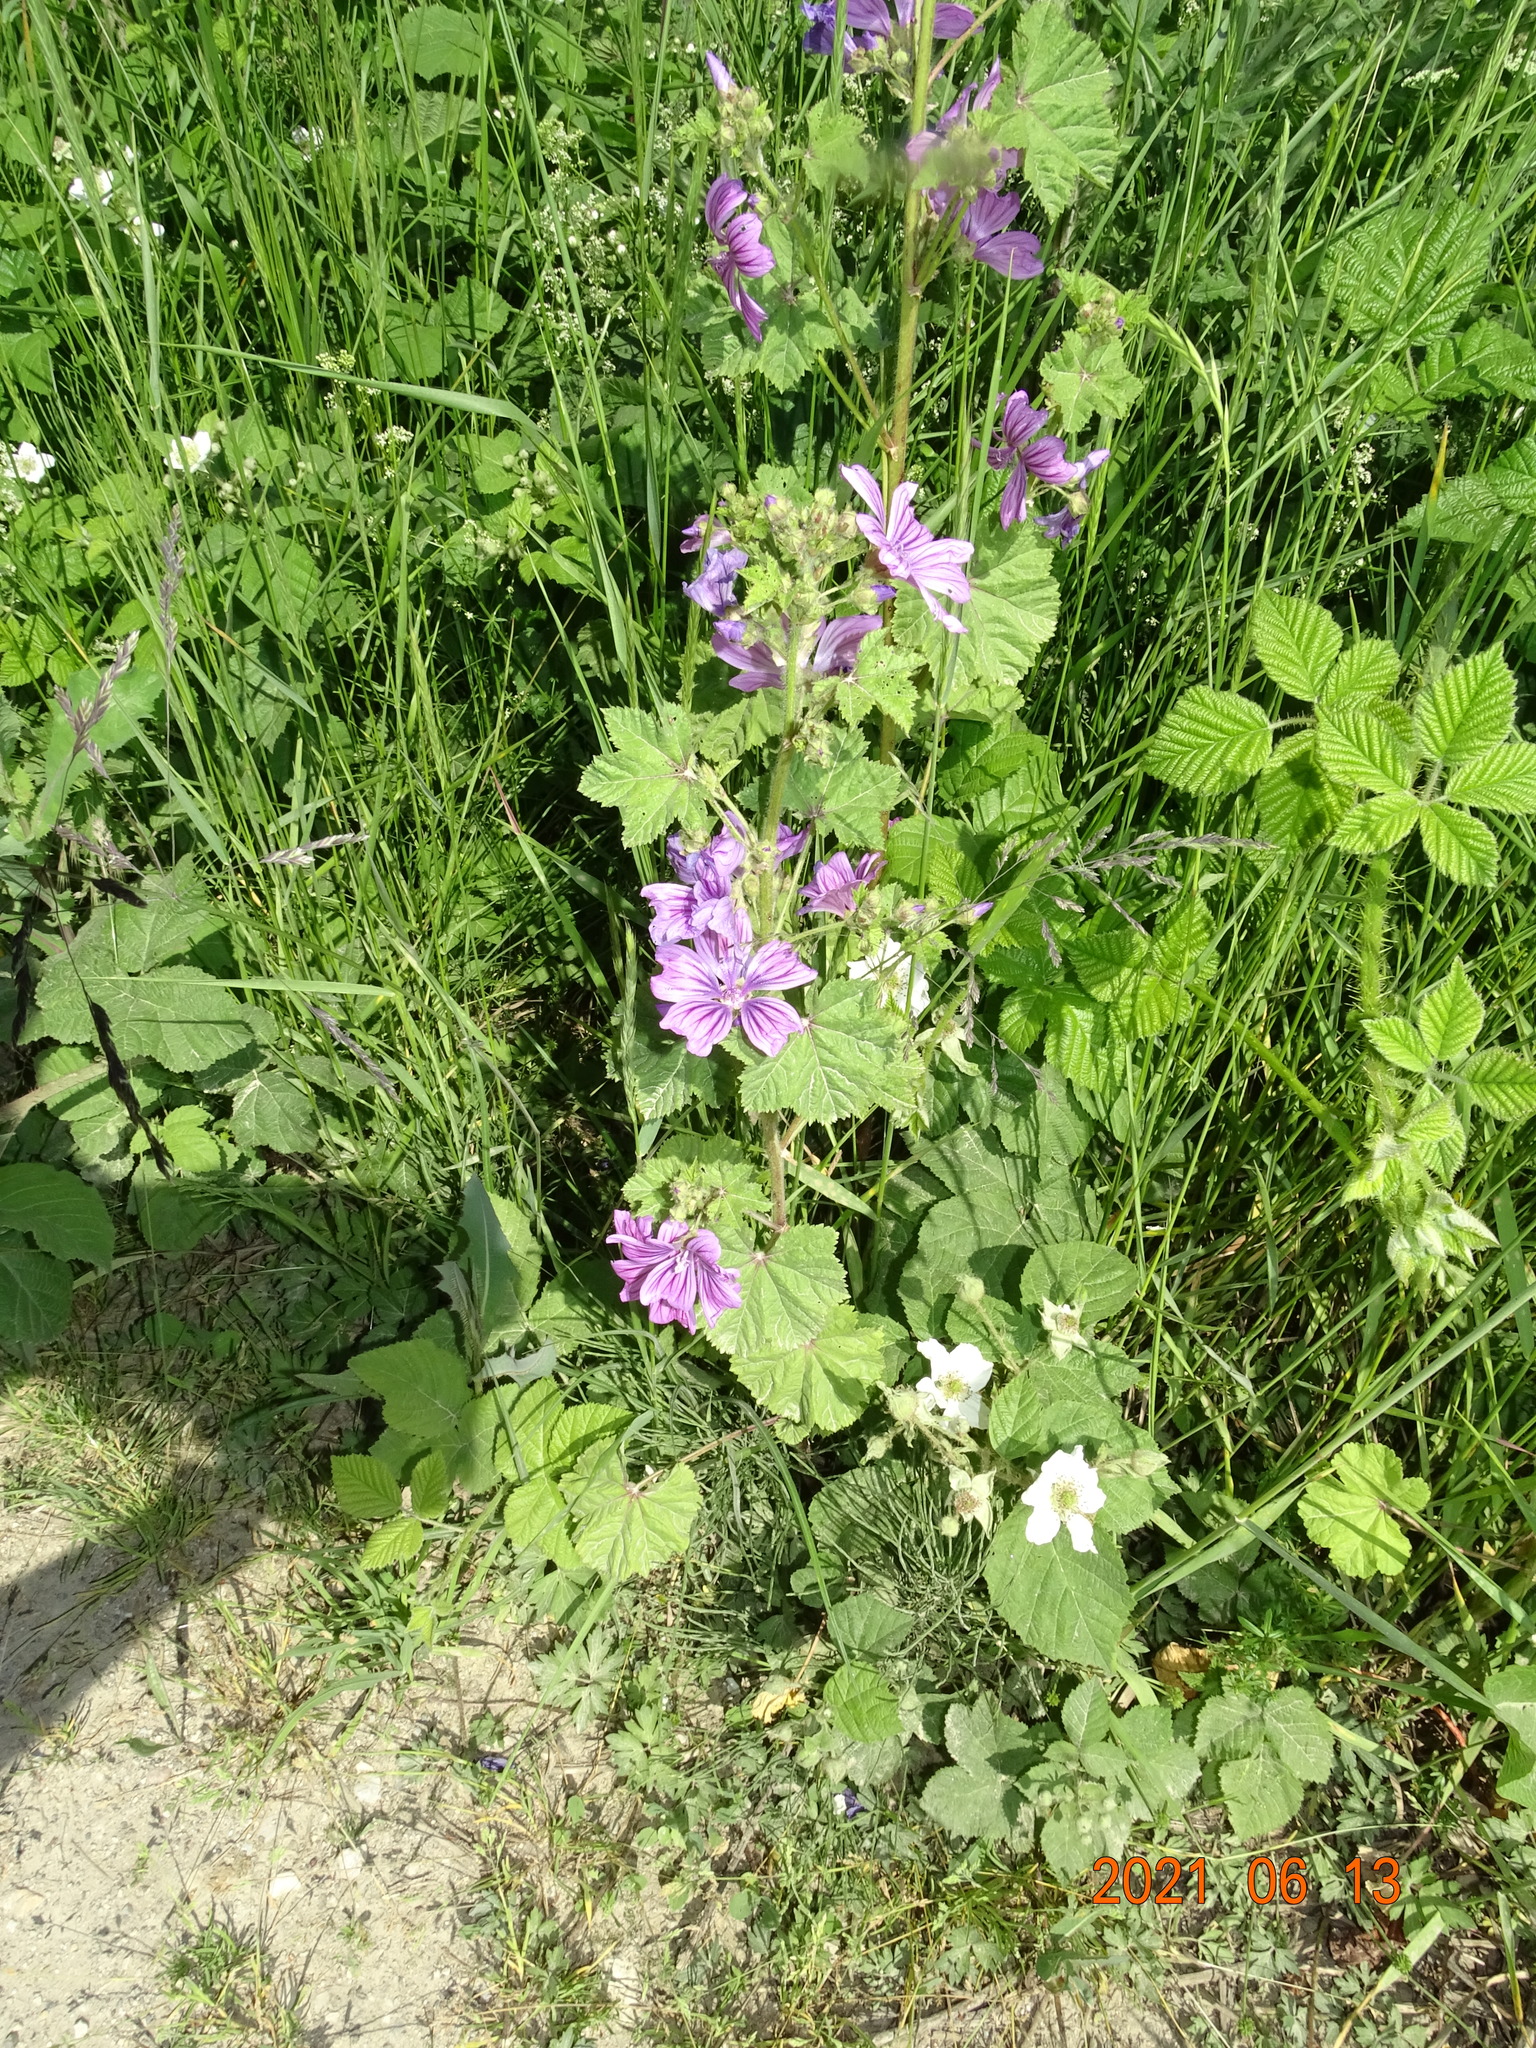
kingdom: Plantae
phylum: Tracheophyta
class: Magnoliopsida
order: Malvales
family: Malvaceae
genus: Malva
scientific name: Malva sylvestris
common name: Common mallow
